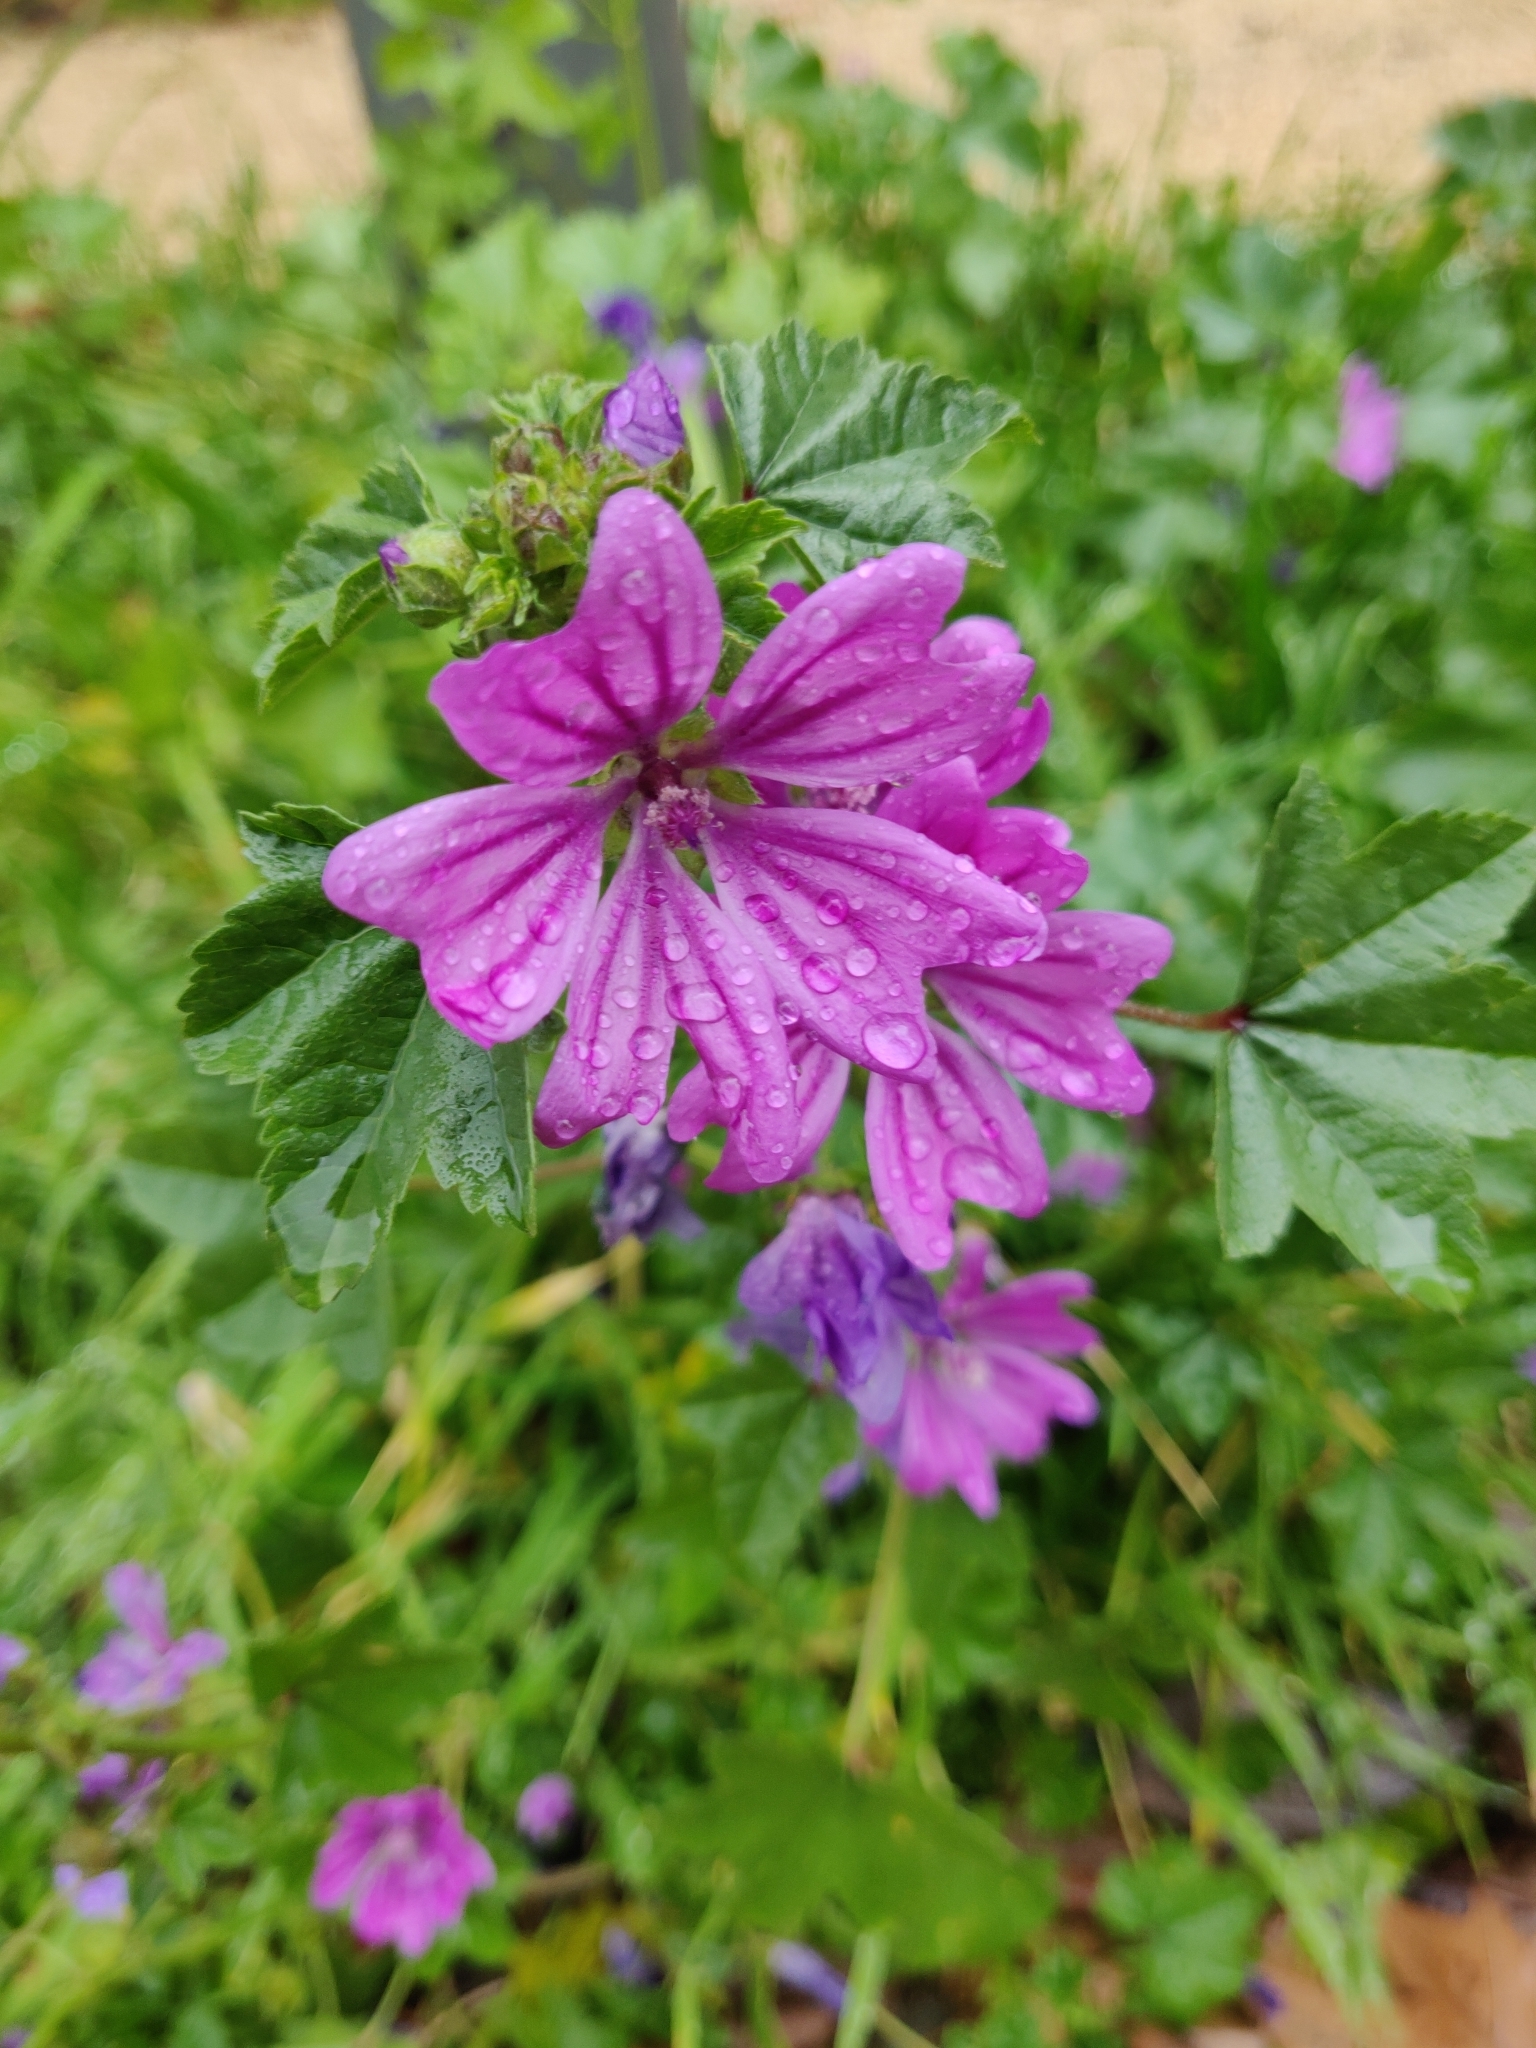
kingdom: Plantae
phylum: Tracheophyta
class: Magnoliopsida
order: Malvales
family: Malvaceae
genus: Malva
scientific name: Malva sylvestris
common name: Common mallow
